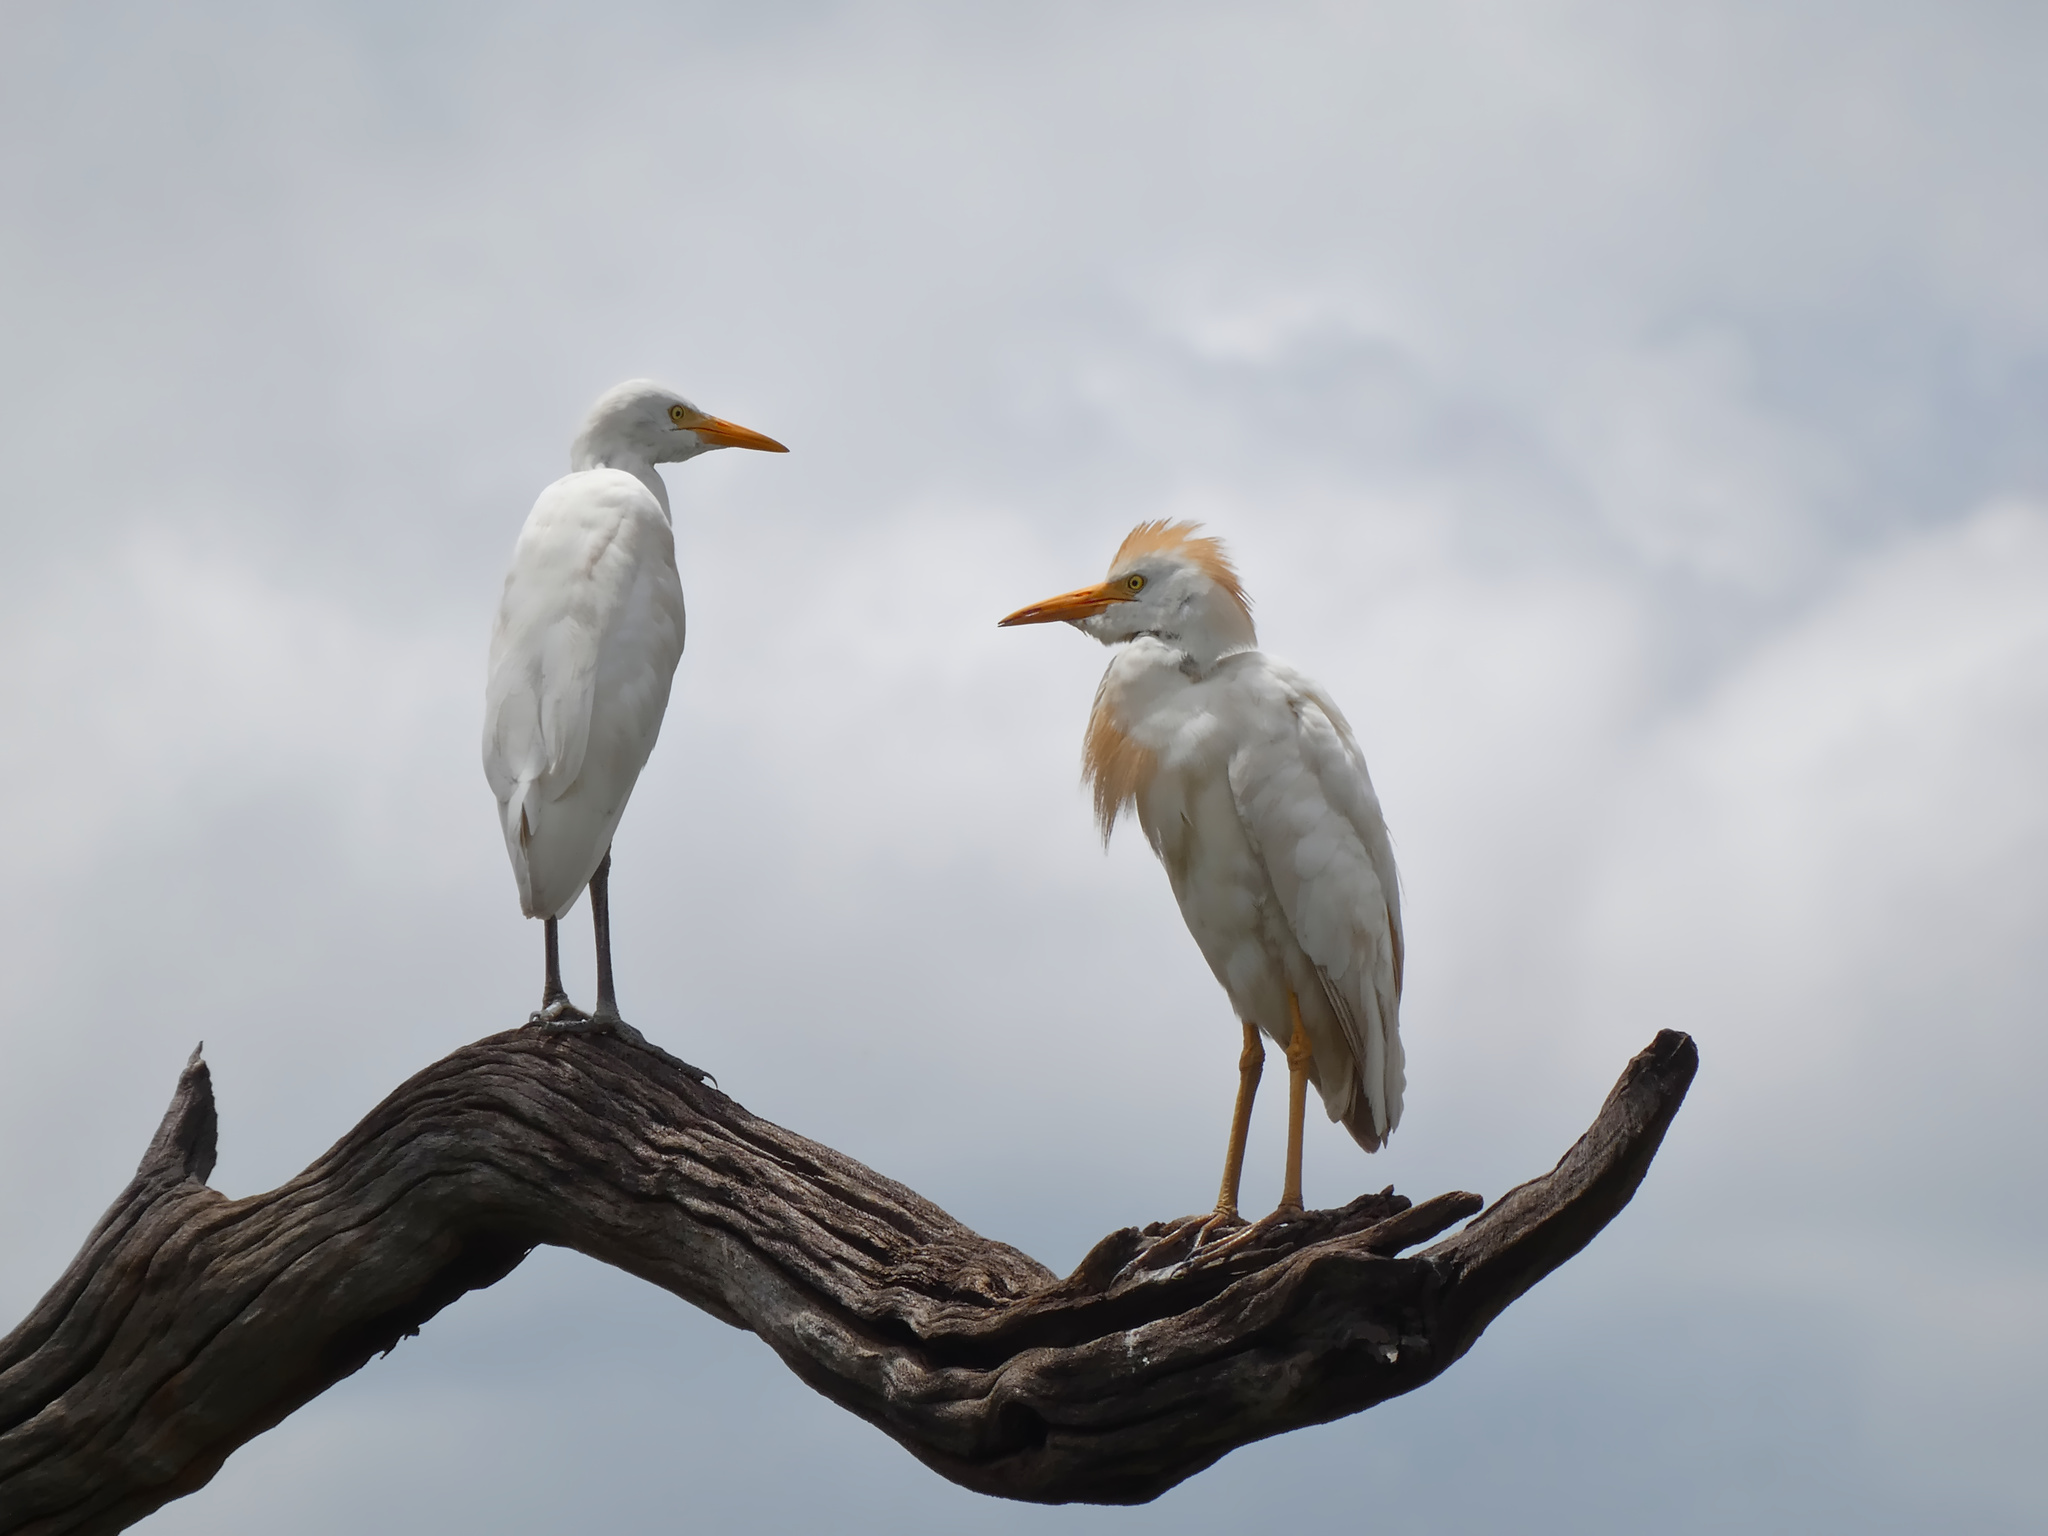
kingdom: Animalia
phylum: Chordata
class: Aves
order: Pelecaniformes
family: Ardeidae
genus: Bubulcus
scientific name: Bubulcus ibis
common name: Cattle egret
